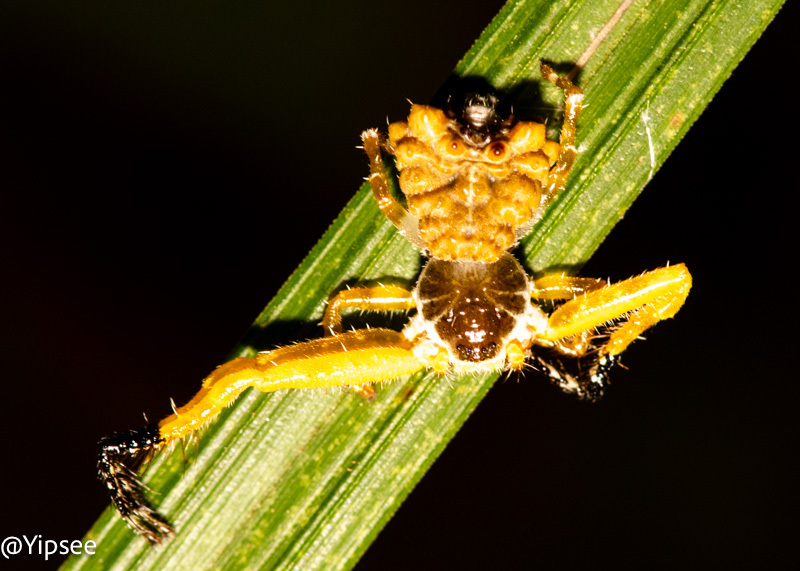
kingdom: Animalia
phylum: Arthropoda
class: Arachnida
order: Araneae
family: Thomisidae
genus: Phrynarachne
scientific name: Phrynarachne ceylonica
